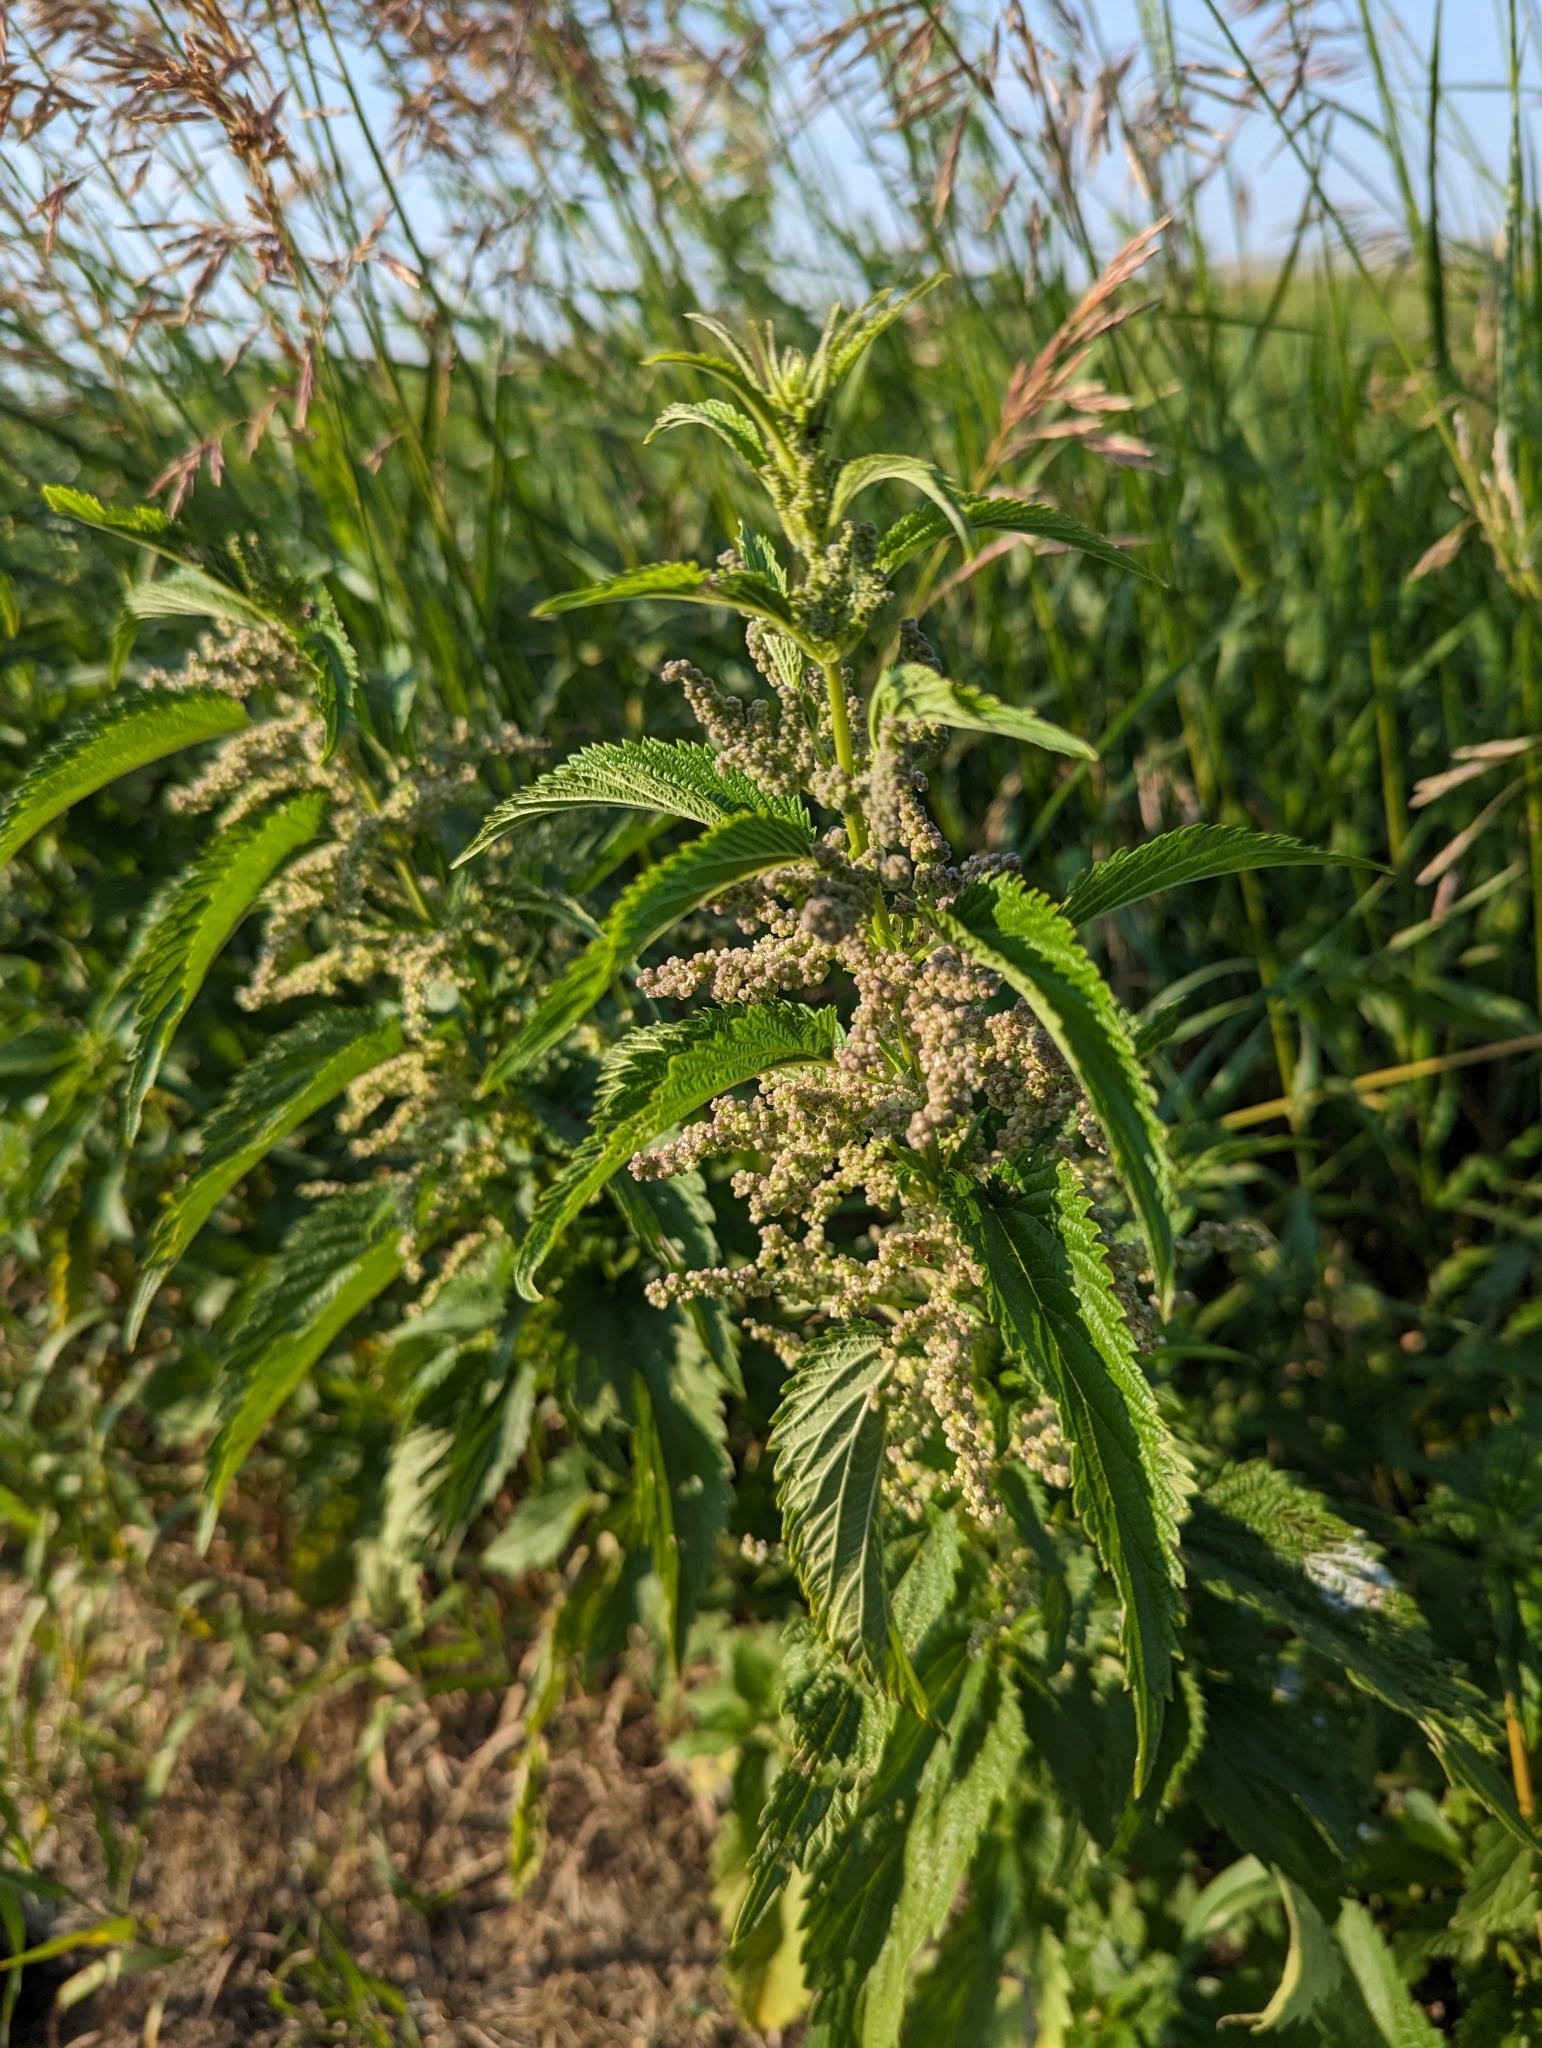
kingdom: Plantae
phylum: Tracheophyta
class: Magnoliopsida
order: Rosales
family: Urticaceae
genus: Urtica
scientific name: Urtica gracilis
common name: Slender stinging nettle
